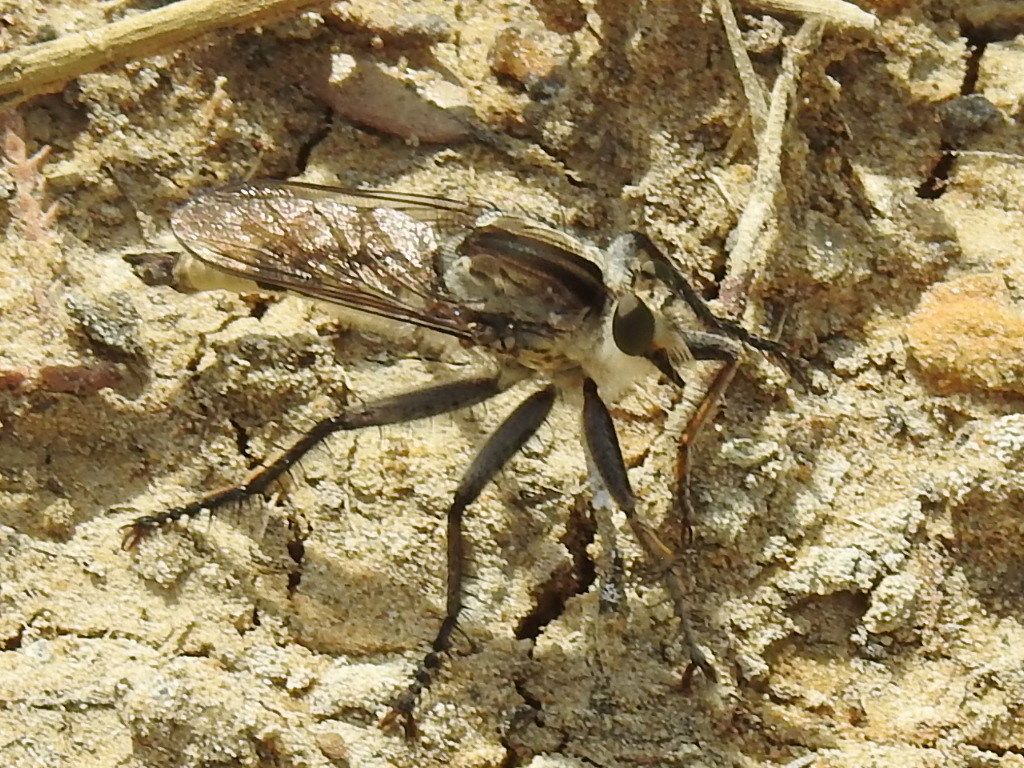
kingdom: Animalia
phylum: Arthropoda
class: Insecta
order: Diptera
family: Asilidae
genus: Triorla
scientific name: Triorla interrupta
